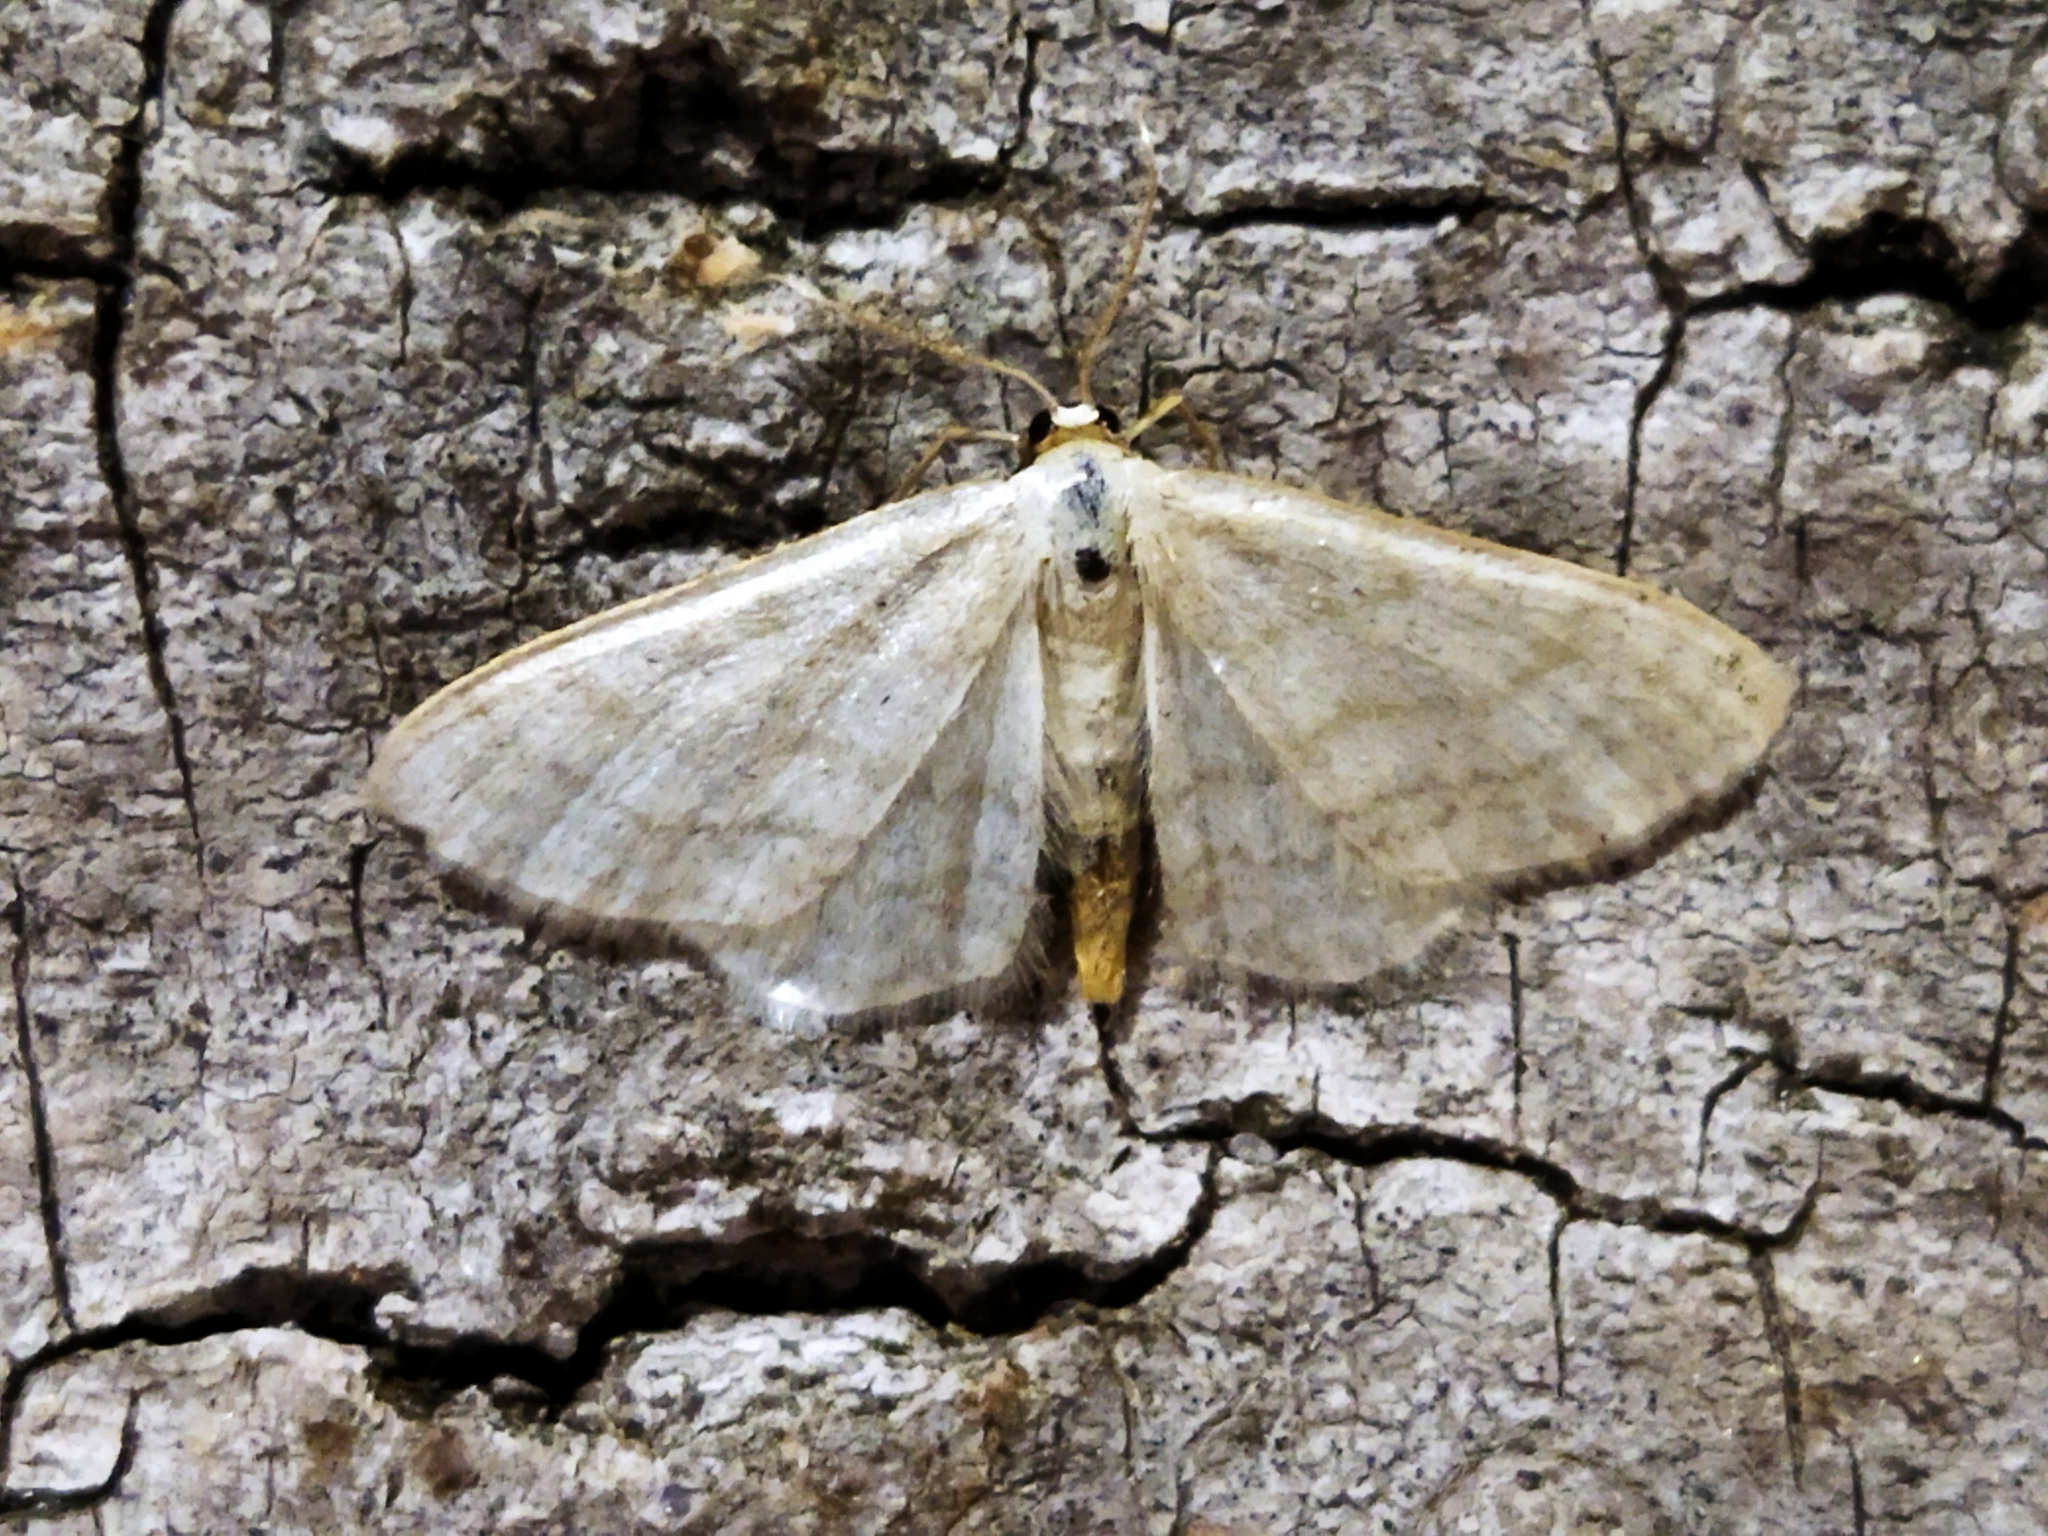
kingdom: Animalia
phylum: Arthropoda
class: Insecta
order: Lepidoptera
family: Geometridae
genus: Idaea
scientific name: Idaea subsericeata
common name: Satin wave
